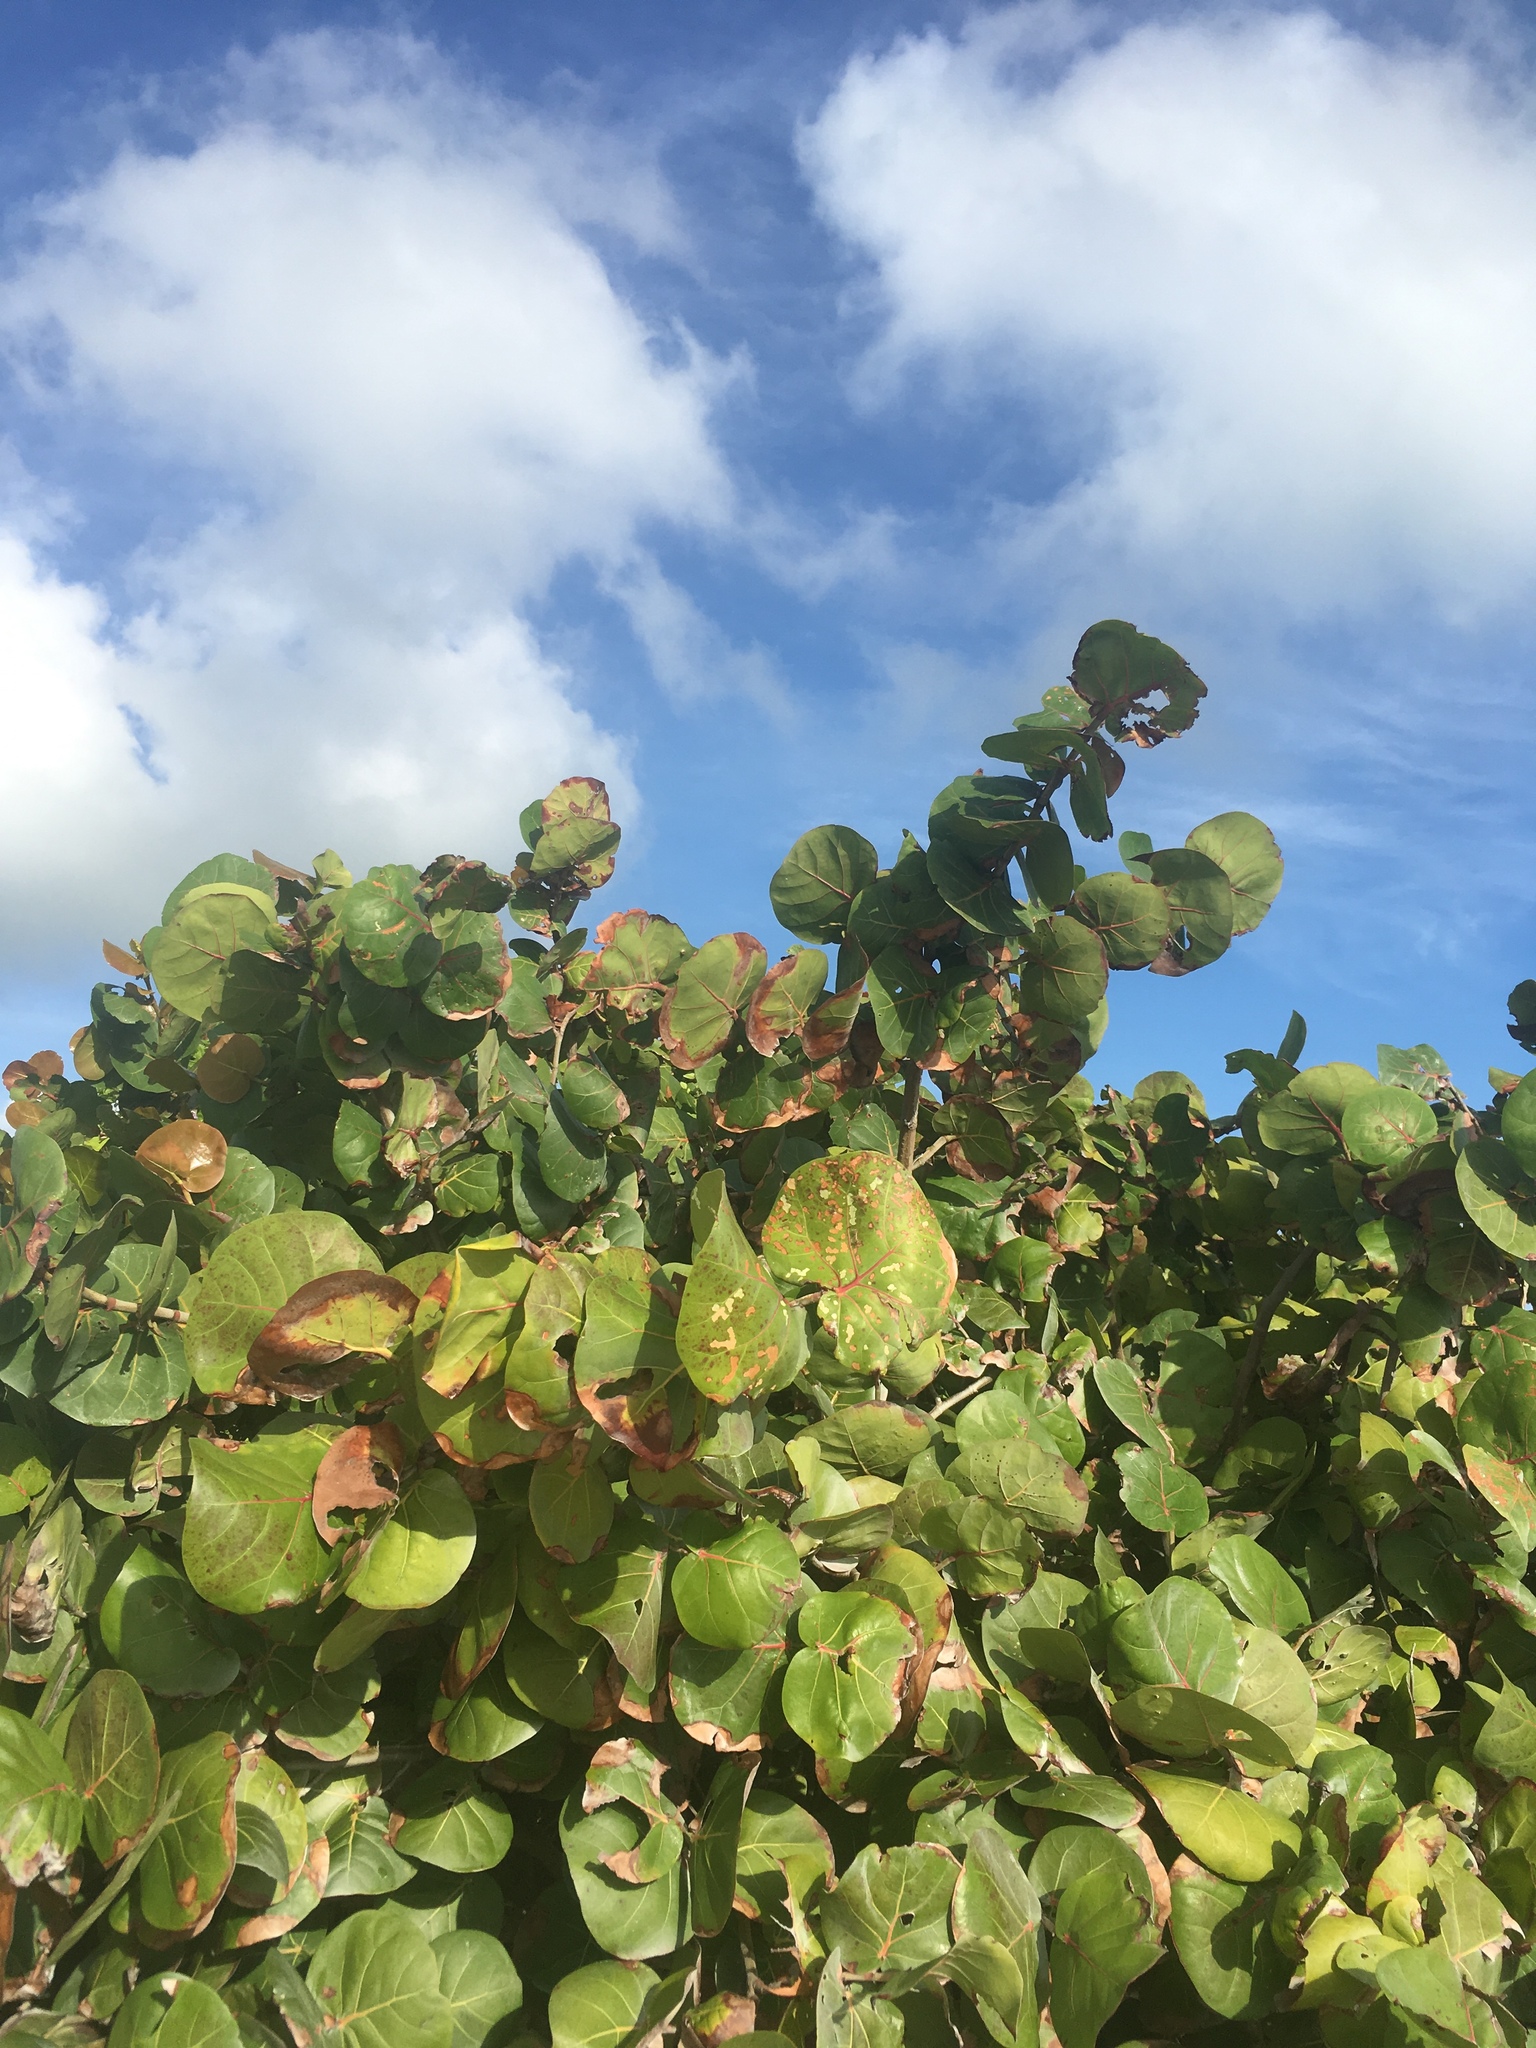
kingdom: Plantae
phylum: Tracheophyta
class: Magnoliopsida
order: Caryophyllales
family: Polygonaceae
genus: Coccoloba
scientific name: Coccoloba uvifera
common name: Seagrape
